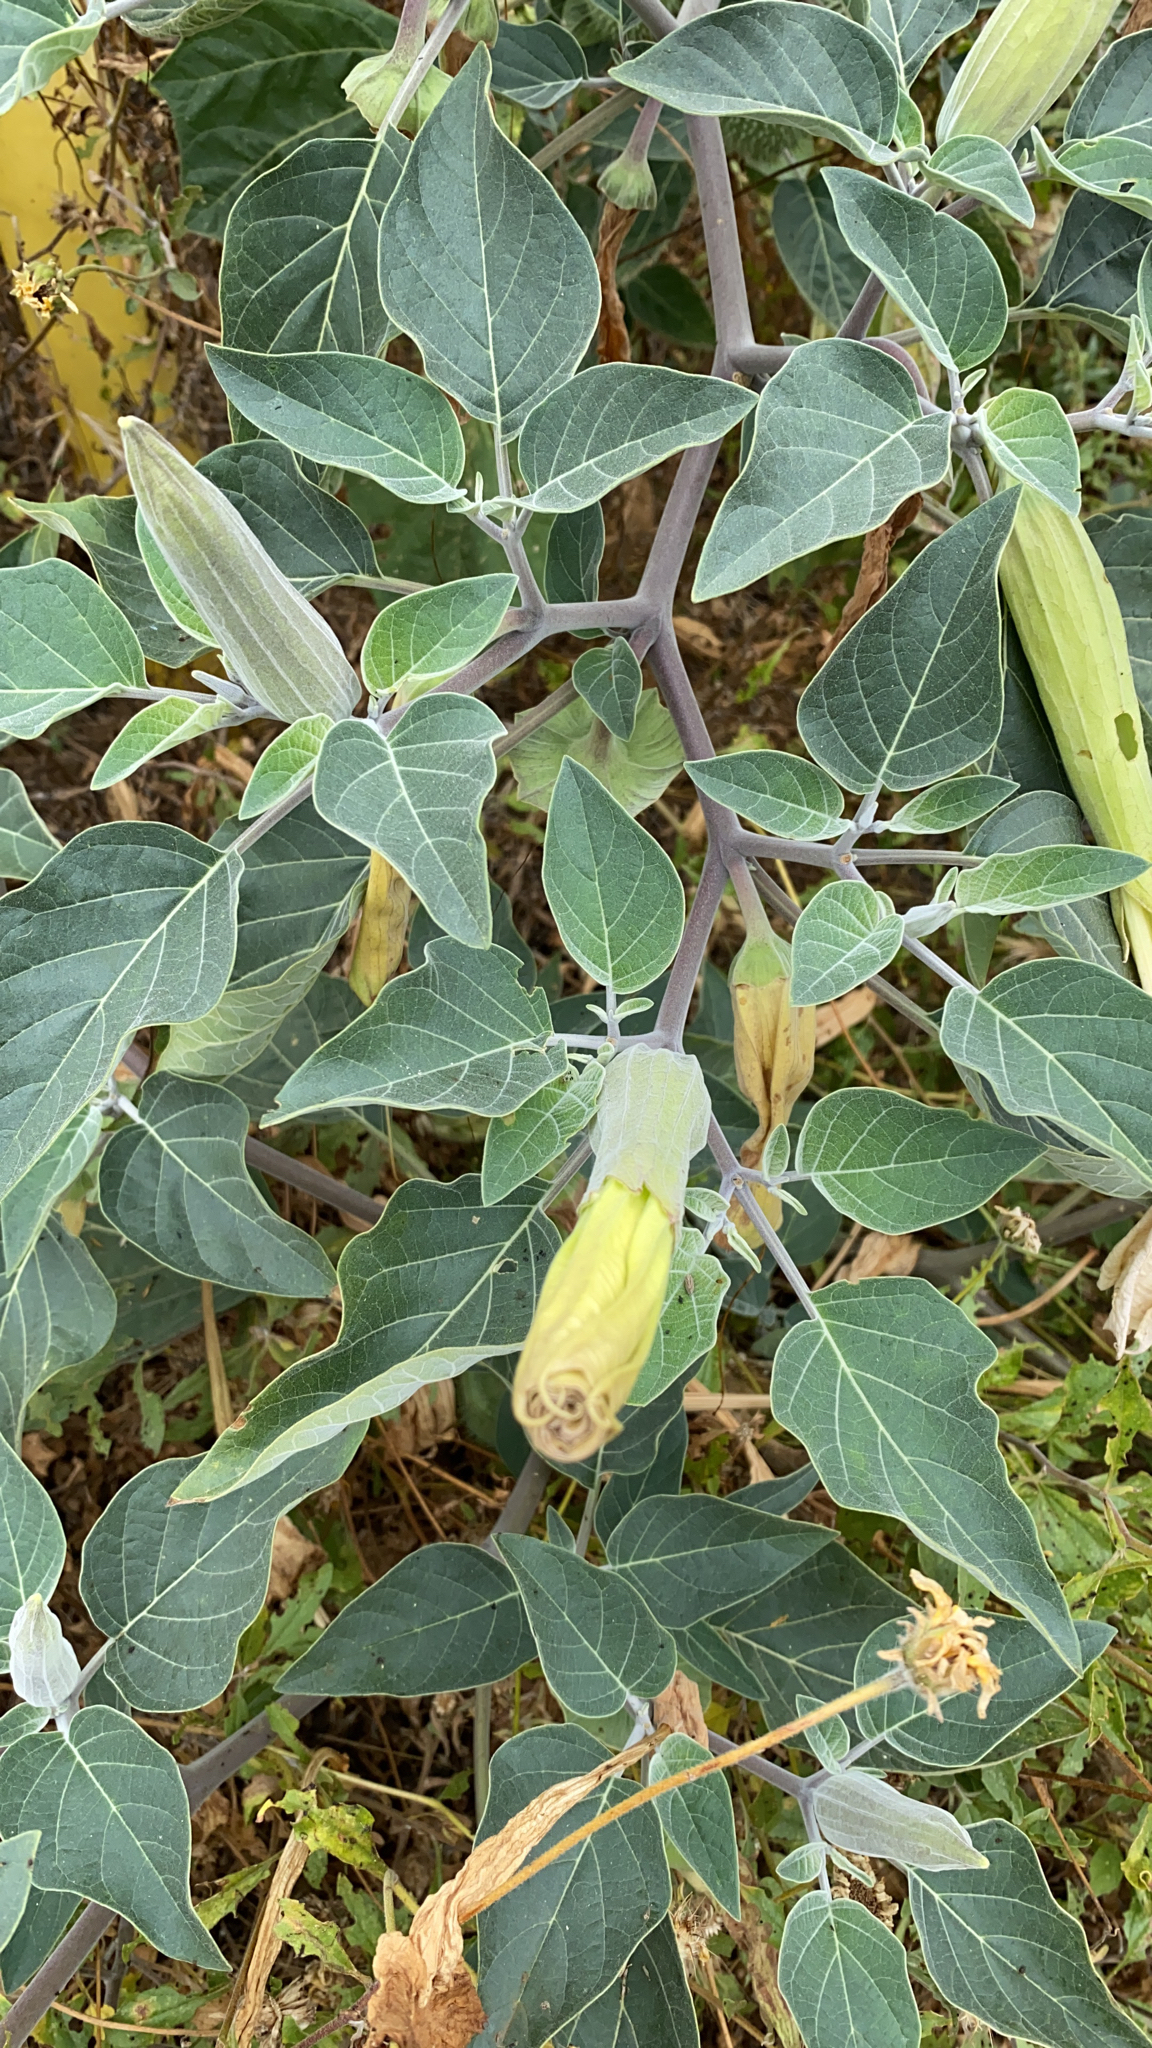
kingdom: Plantae
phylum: Tracheophyta
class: Magnoliopsida
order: Solanales
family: Solanaceae
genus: Datura
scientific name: Datura wrightii
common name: Sacred thorn-apple
